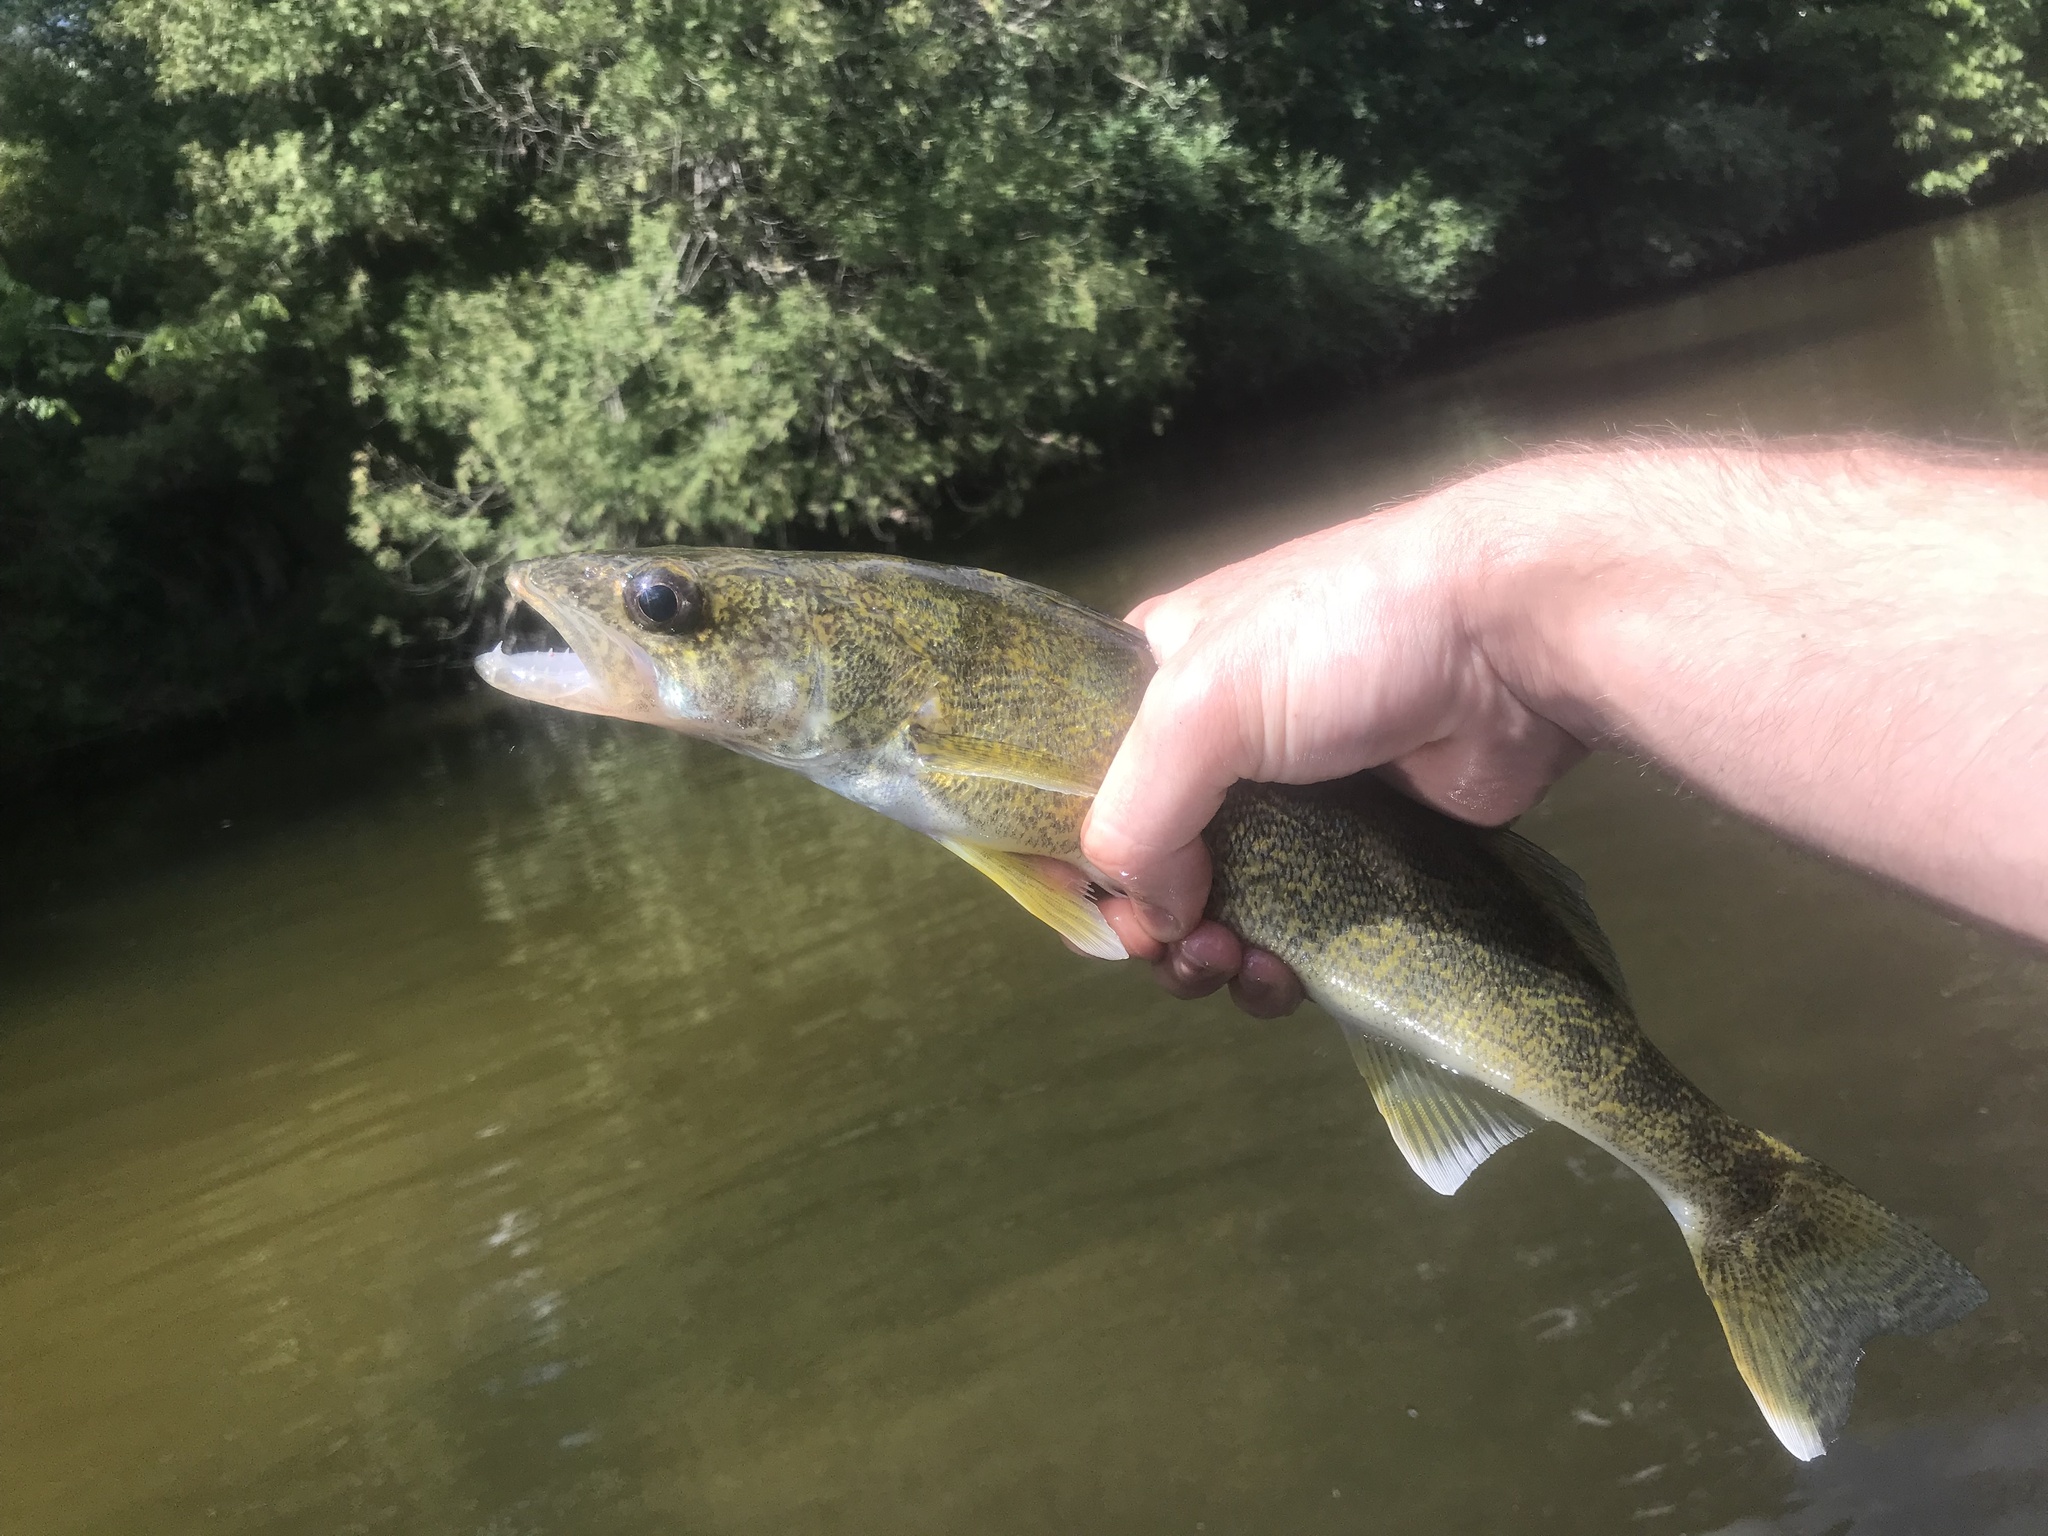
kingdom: Animalia
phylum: Chordata
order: Perciformes
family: Percidae
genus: Sander
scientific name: Sander vitreus
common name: Walleye
